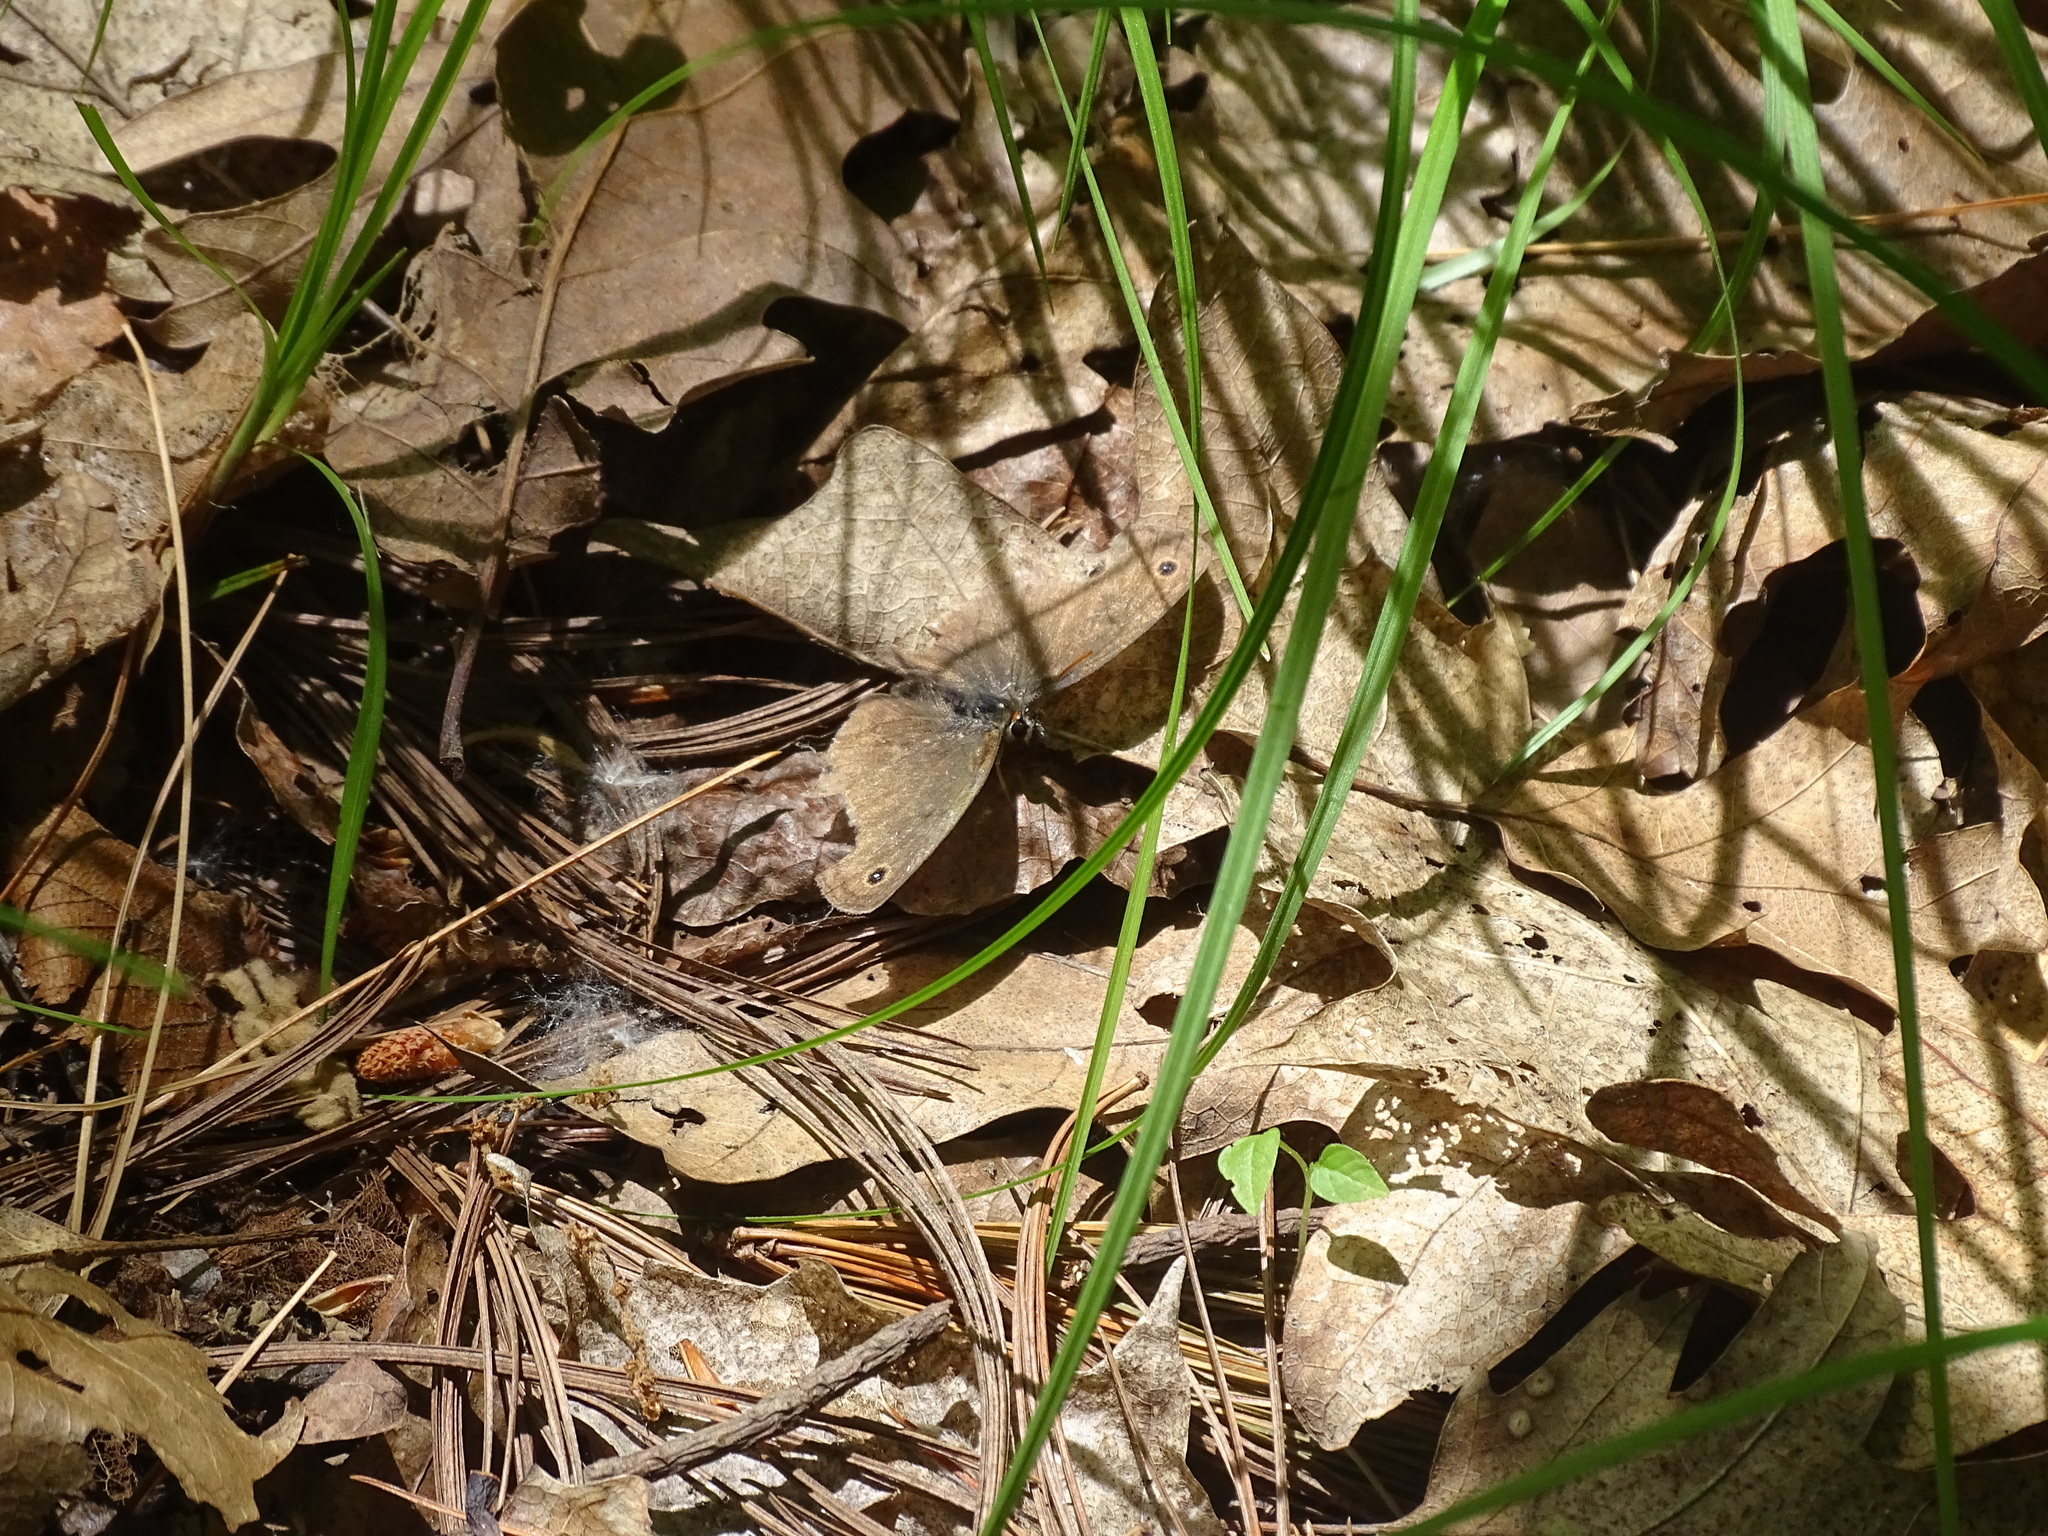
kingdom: Animalia
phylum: Arthropoda
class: Insecta
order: Lepidoptera
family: Nymphalidae
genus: Euptychia
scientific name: Euptychia cymela
